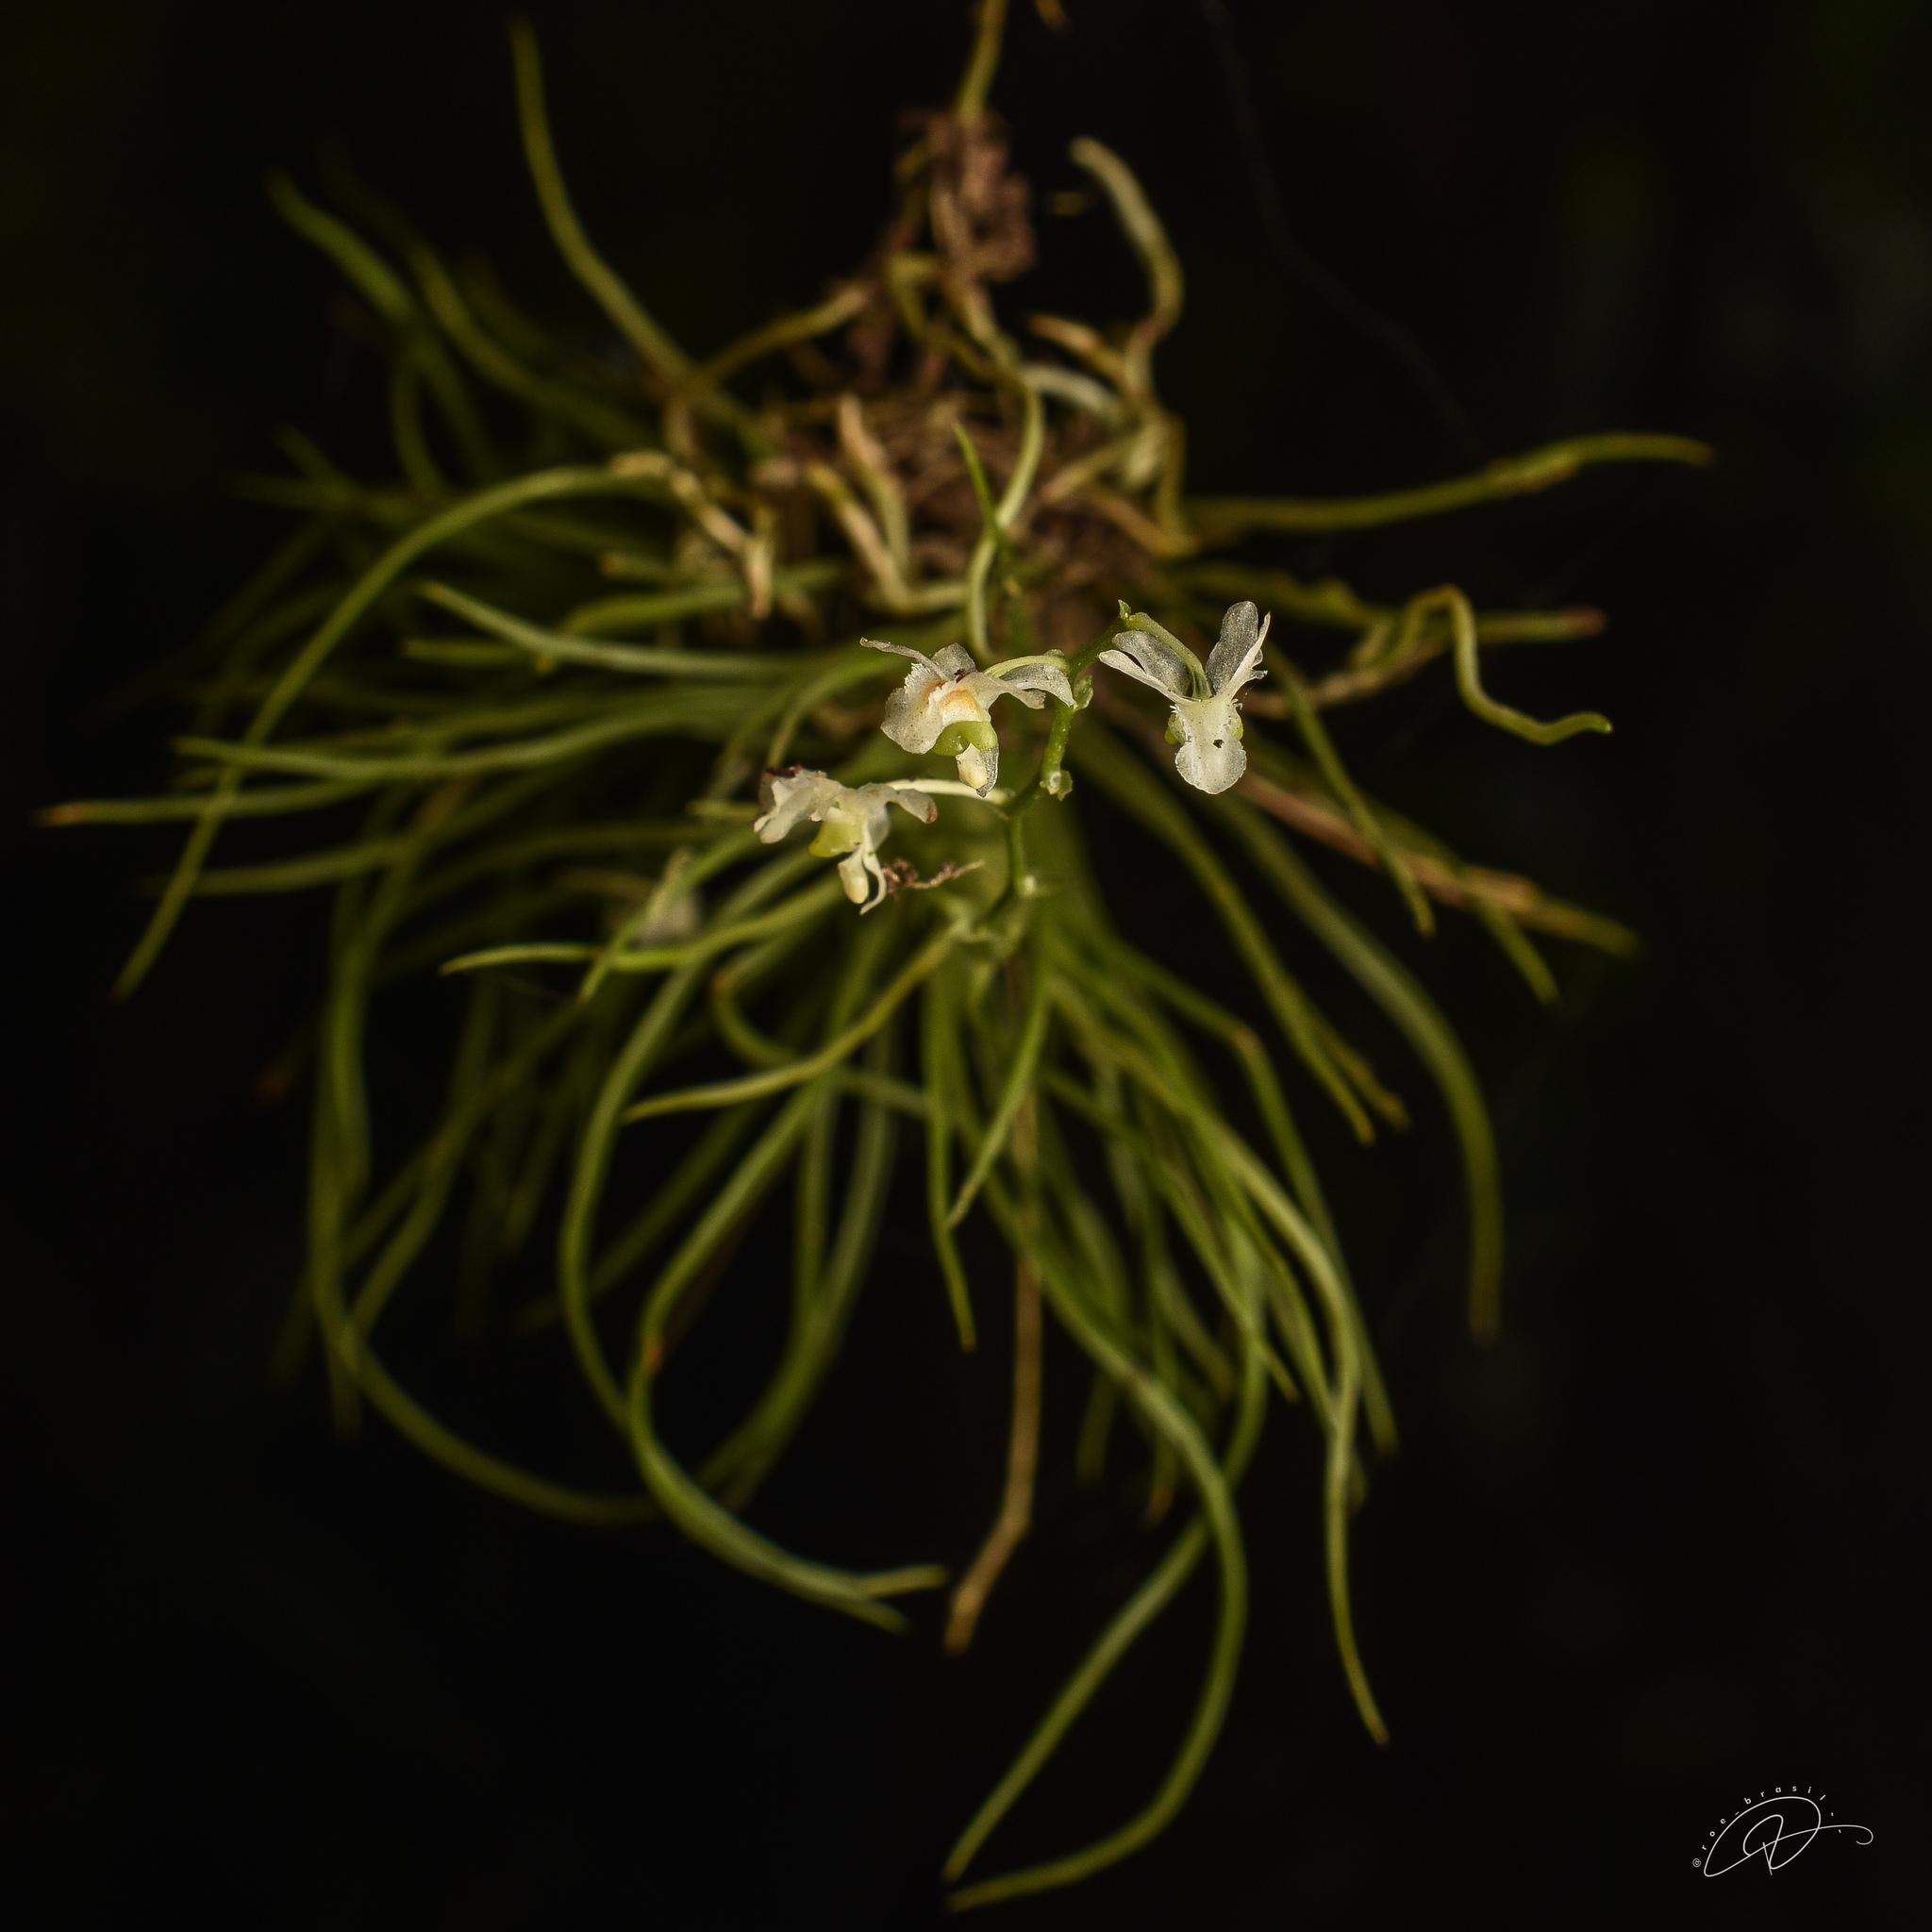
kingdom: Plantae
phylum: Tracheophyta
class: Liliopsida
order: Asparagales
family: Orchidaceae
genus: Phymatidium
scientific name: Phymatidium falcifolium
